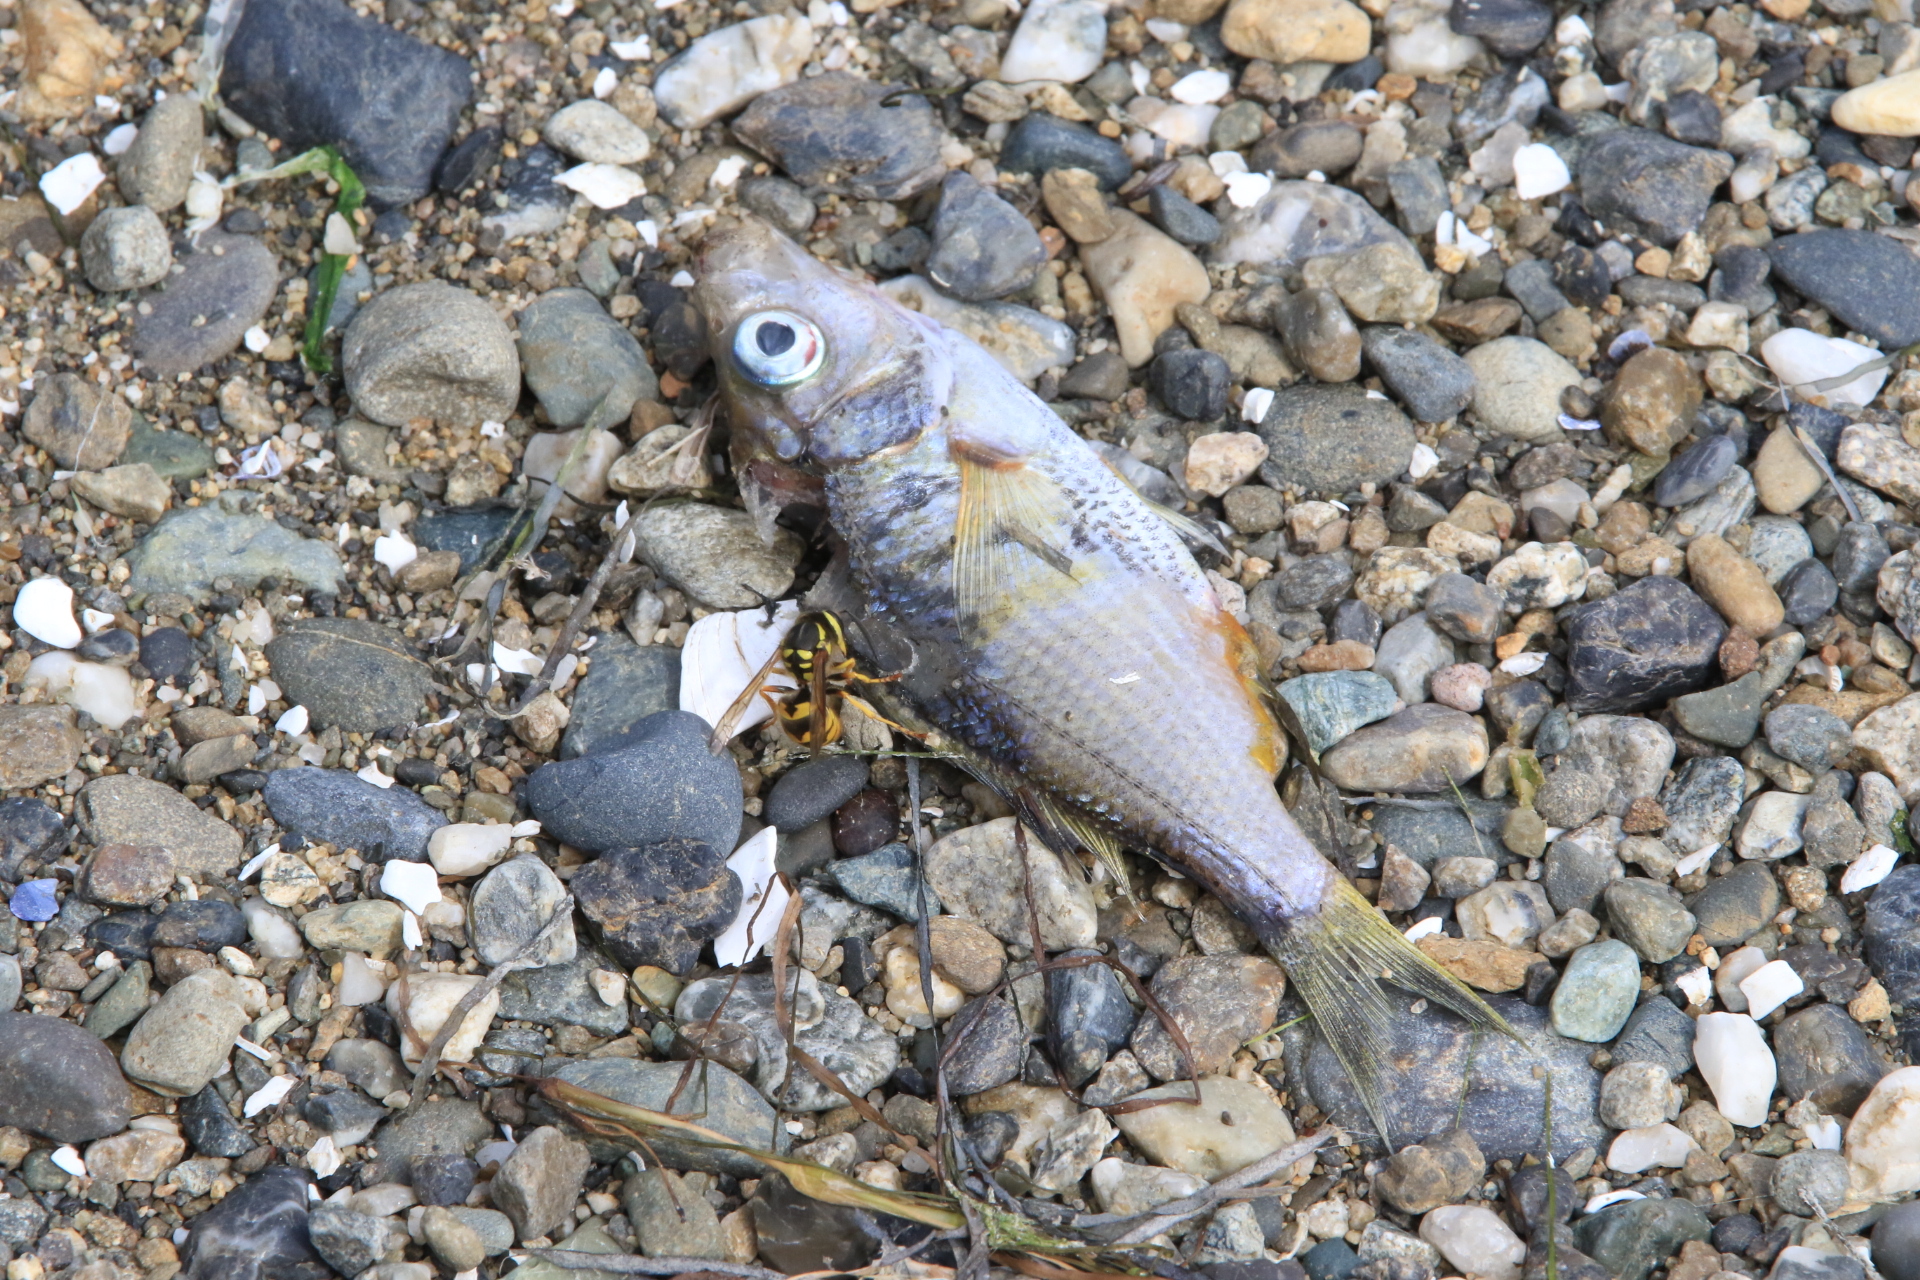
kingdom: Animalia
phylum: Arthropoda
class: Insecta
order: Hymenoptera
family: Vespidae
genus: Vespula
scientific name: Vespula pensylvanica
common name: Western yellowjacket
